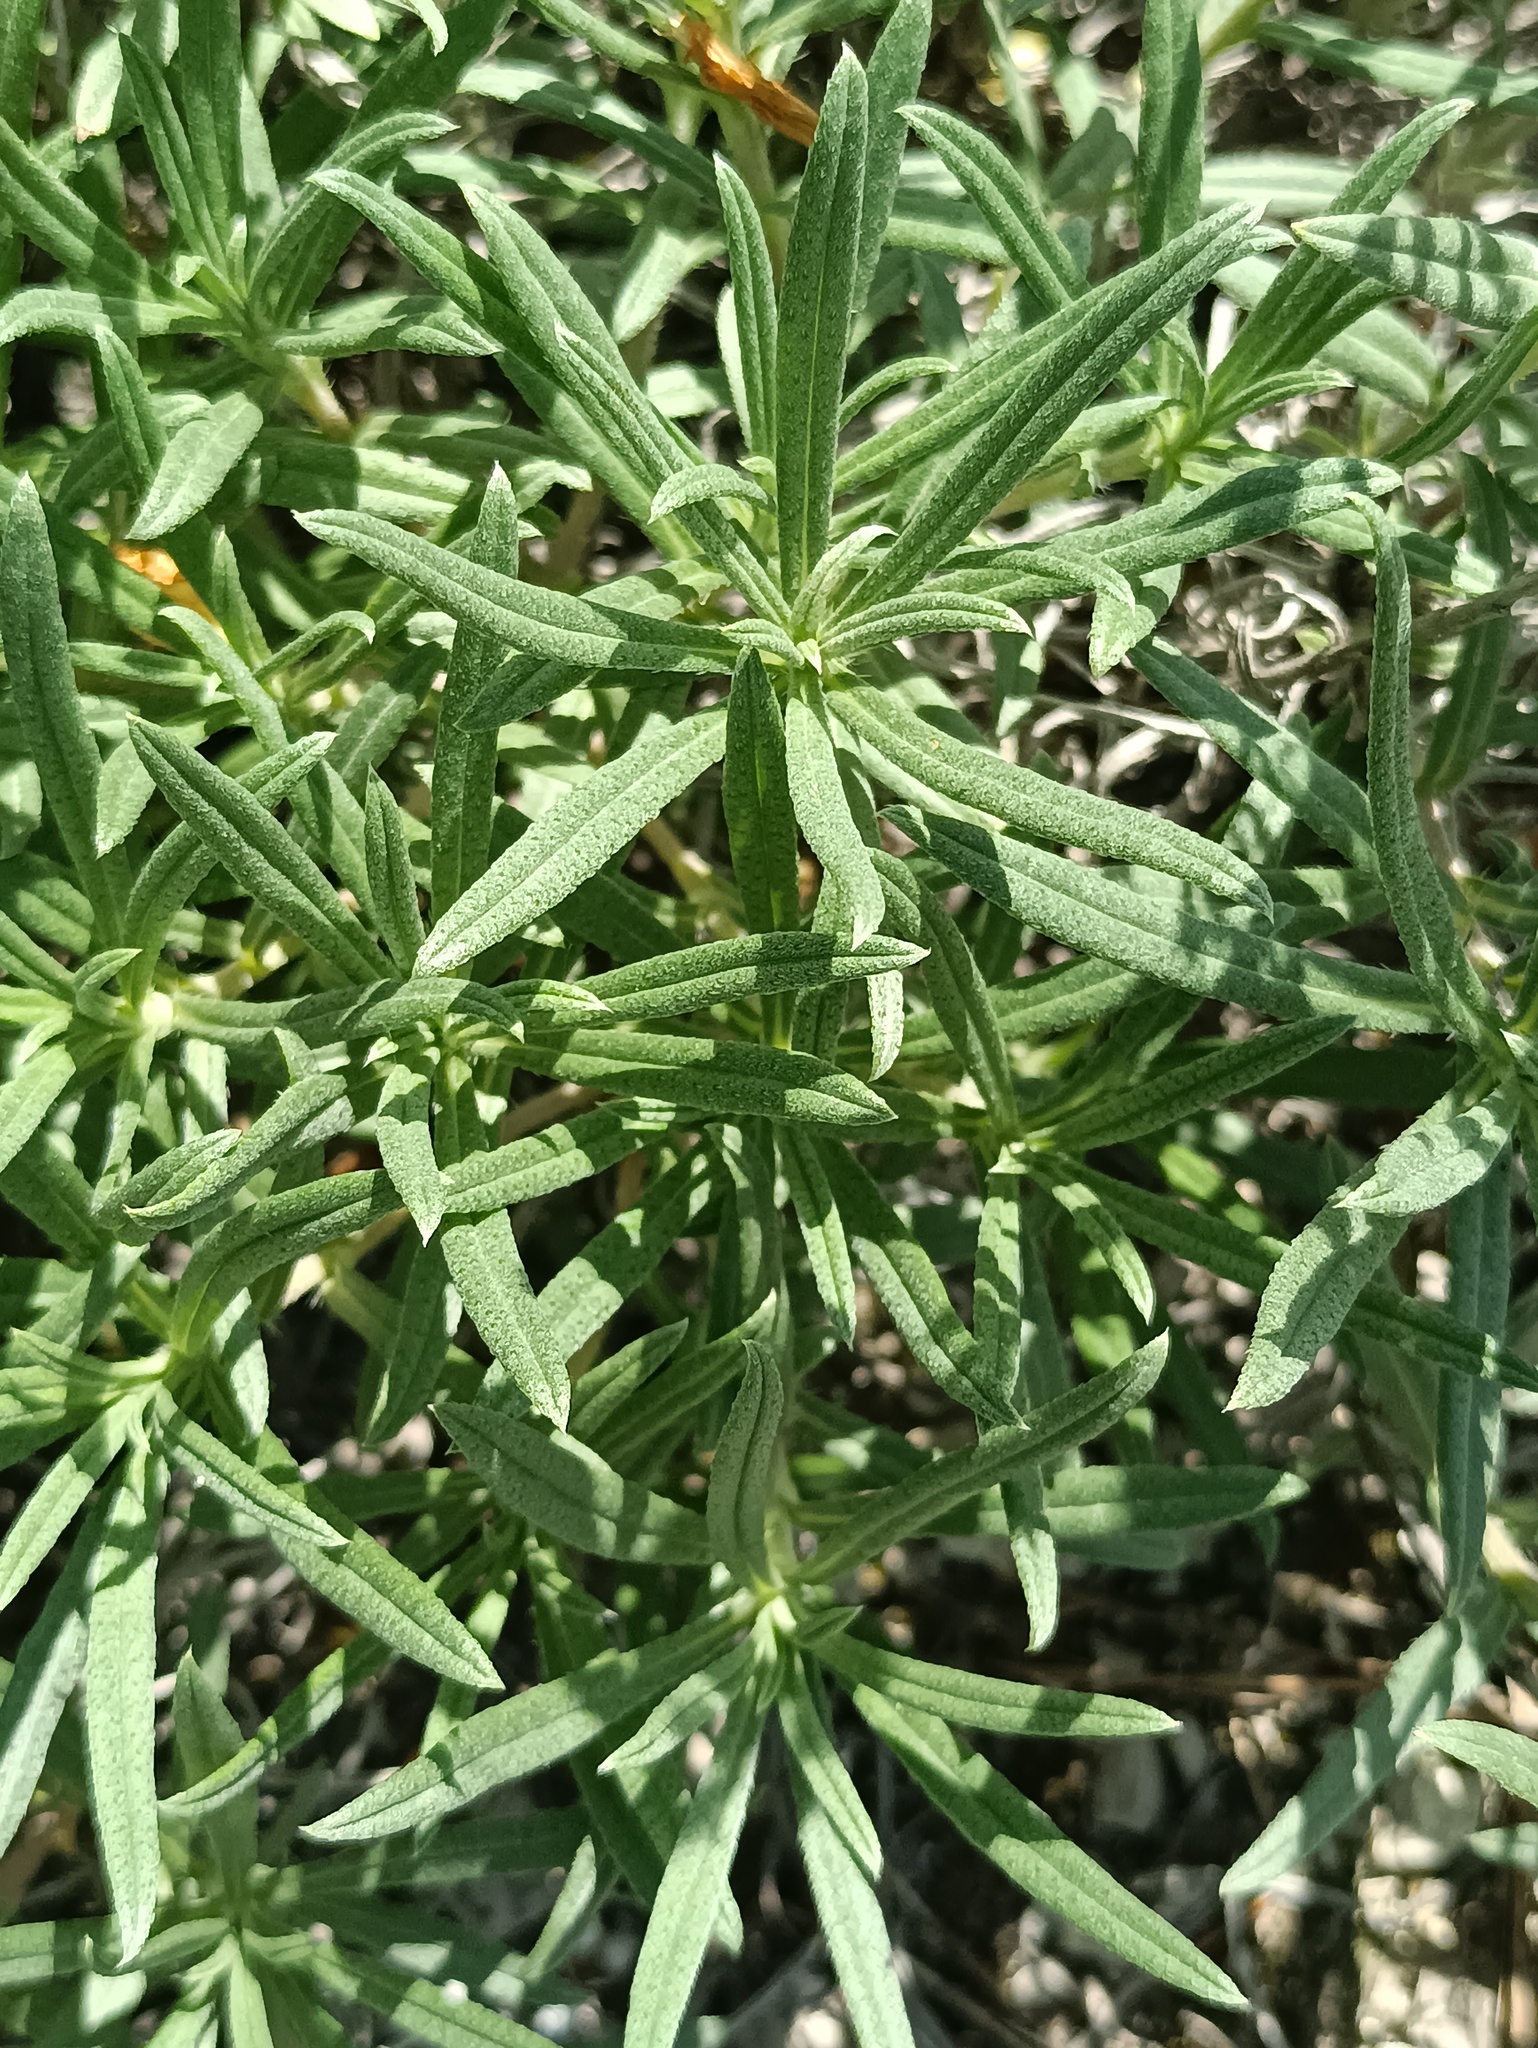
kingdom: Plantae
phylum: Tracheophyta
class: Magnoliopsida
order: Boraginales
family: Boraginaceae
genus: Onosma
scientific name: Onosma simplicissima
